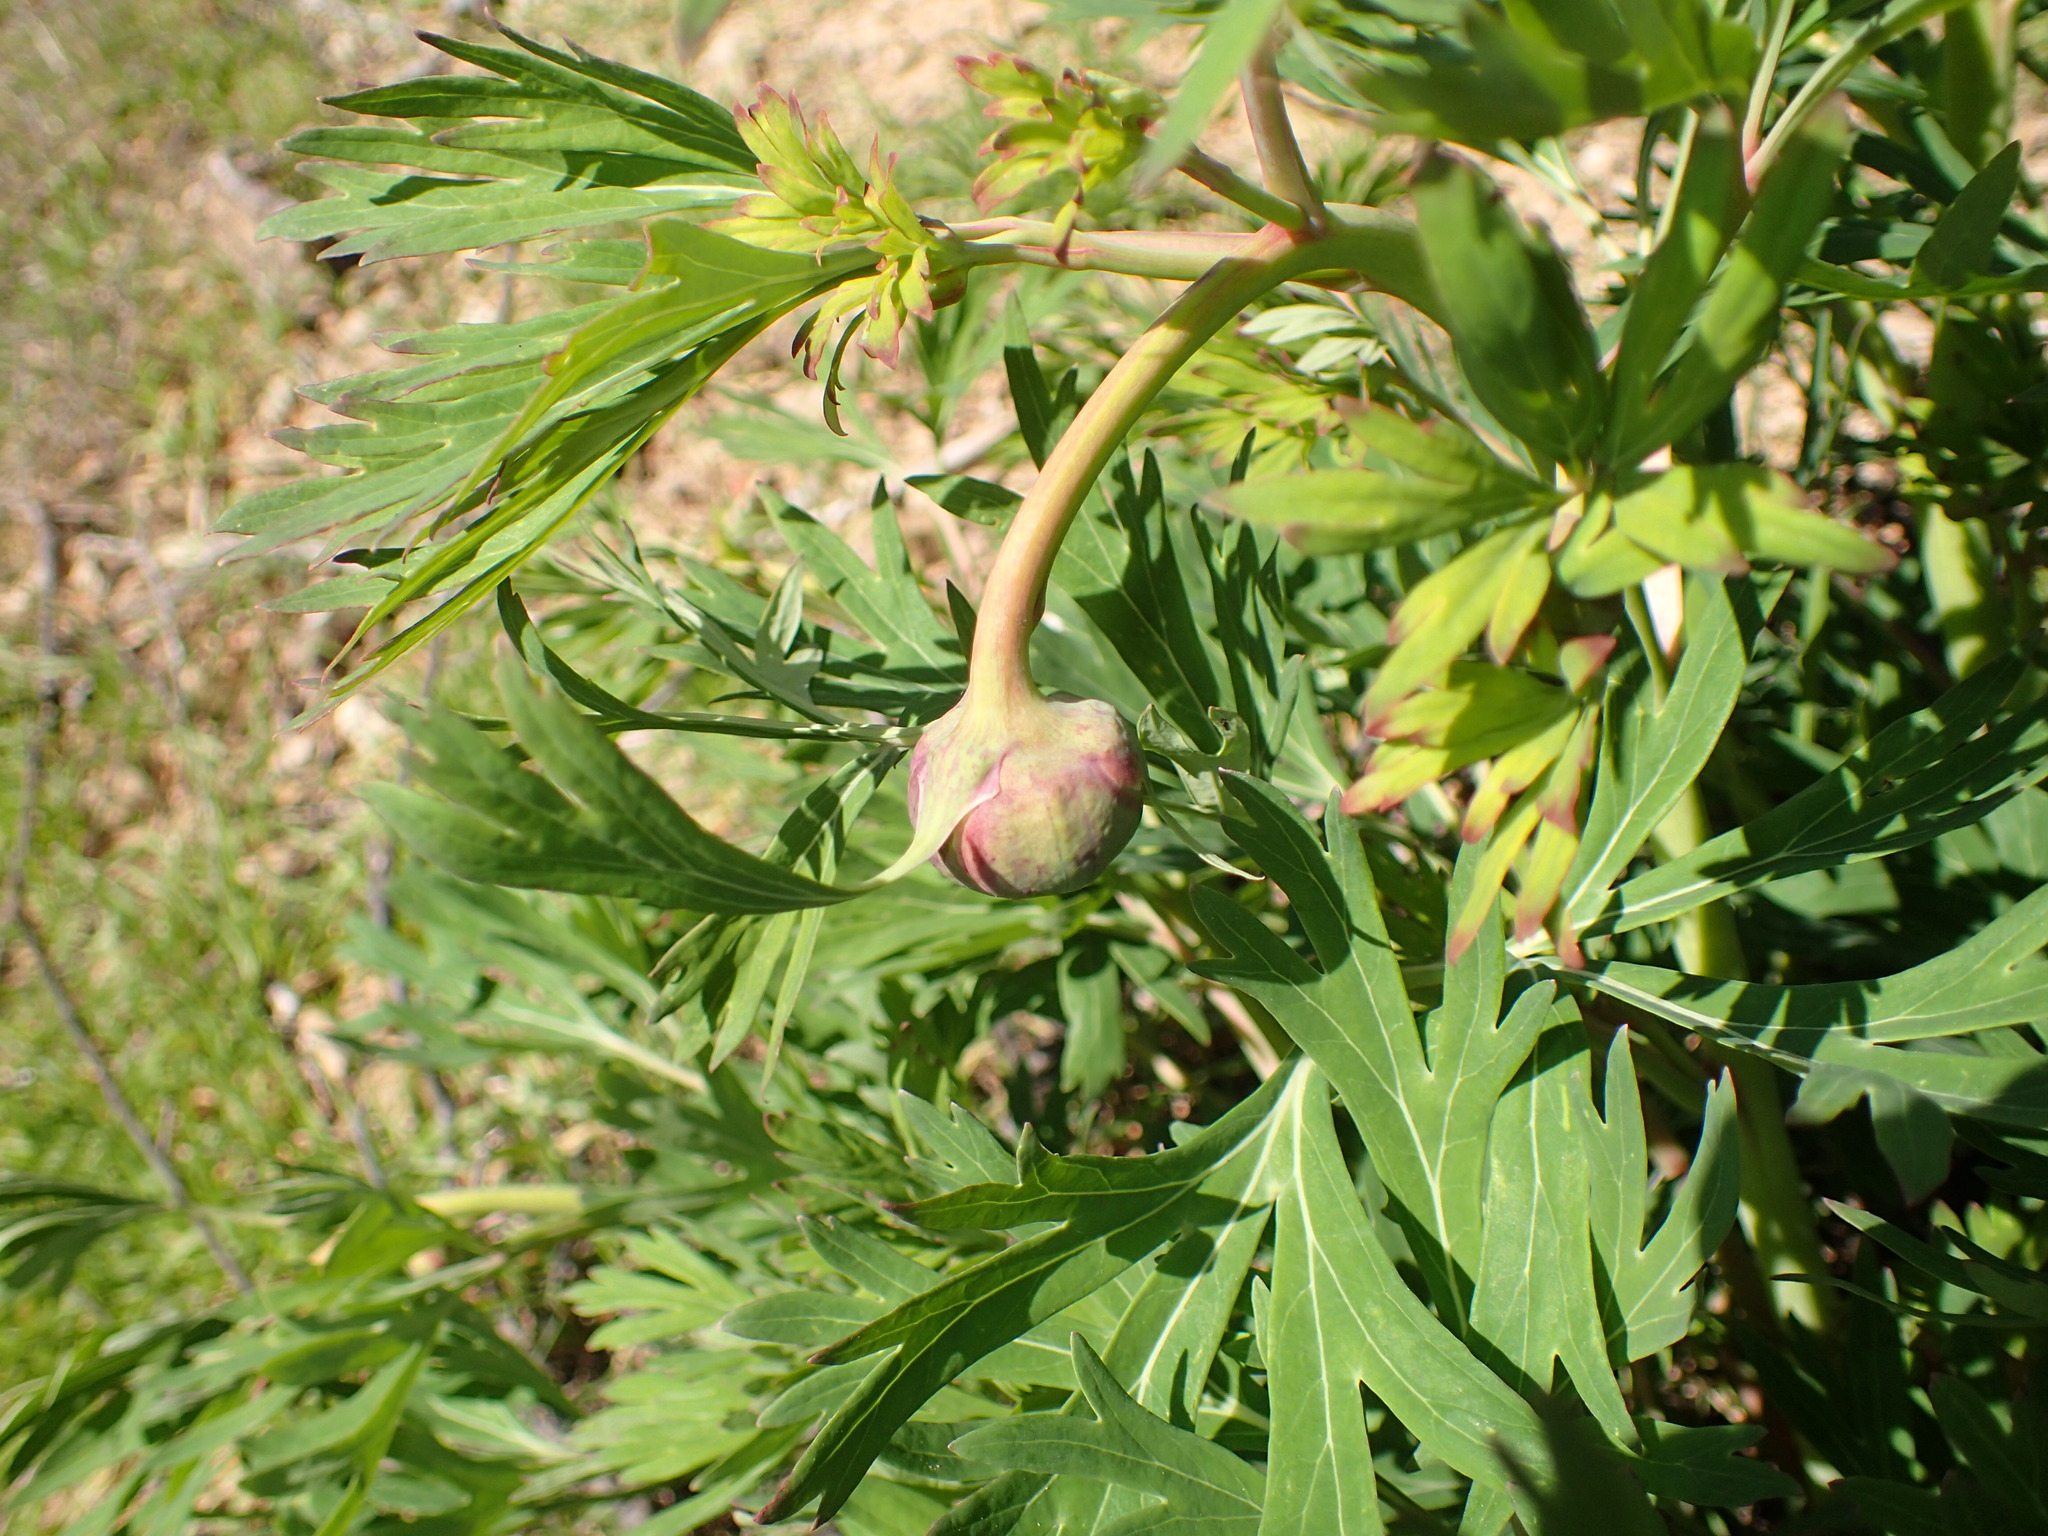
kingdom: Plantae
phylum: Tracheophyta
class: Magnoliopsida
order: Saxifragales
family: Paeoniaceae
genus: Paeonia
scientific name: Paeonia californica
